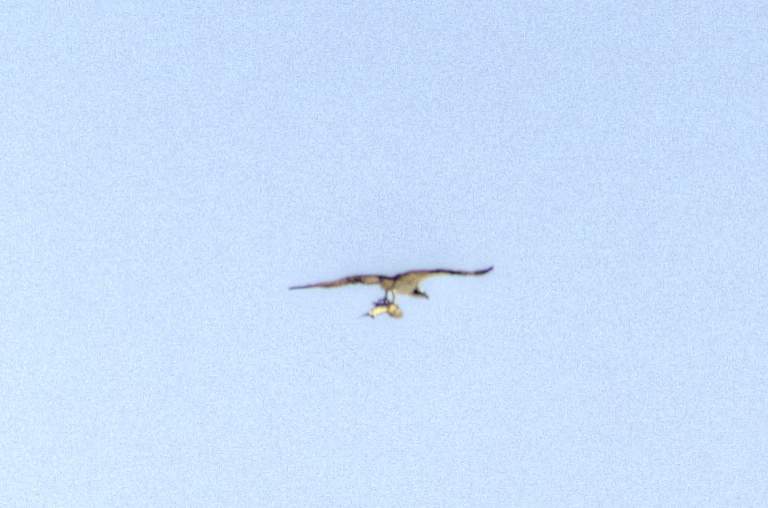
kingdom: Animalia
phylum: Chordata
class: Aves
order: Accipitriformes
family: Pandionidae
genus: Pandion
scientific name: Pandion haliaetus
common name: Osprey
